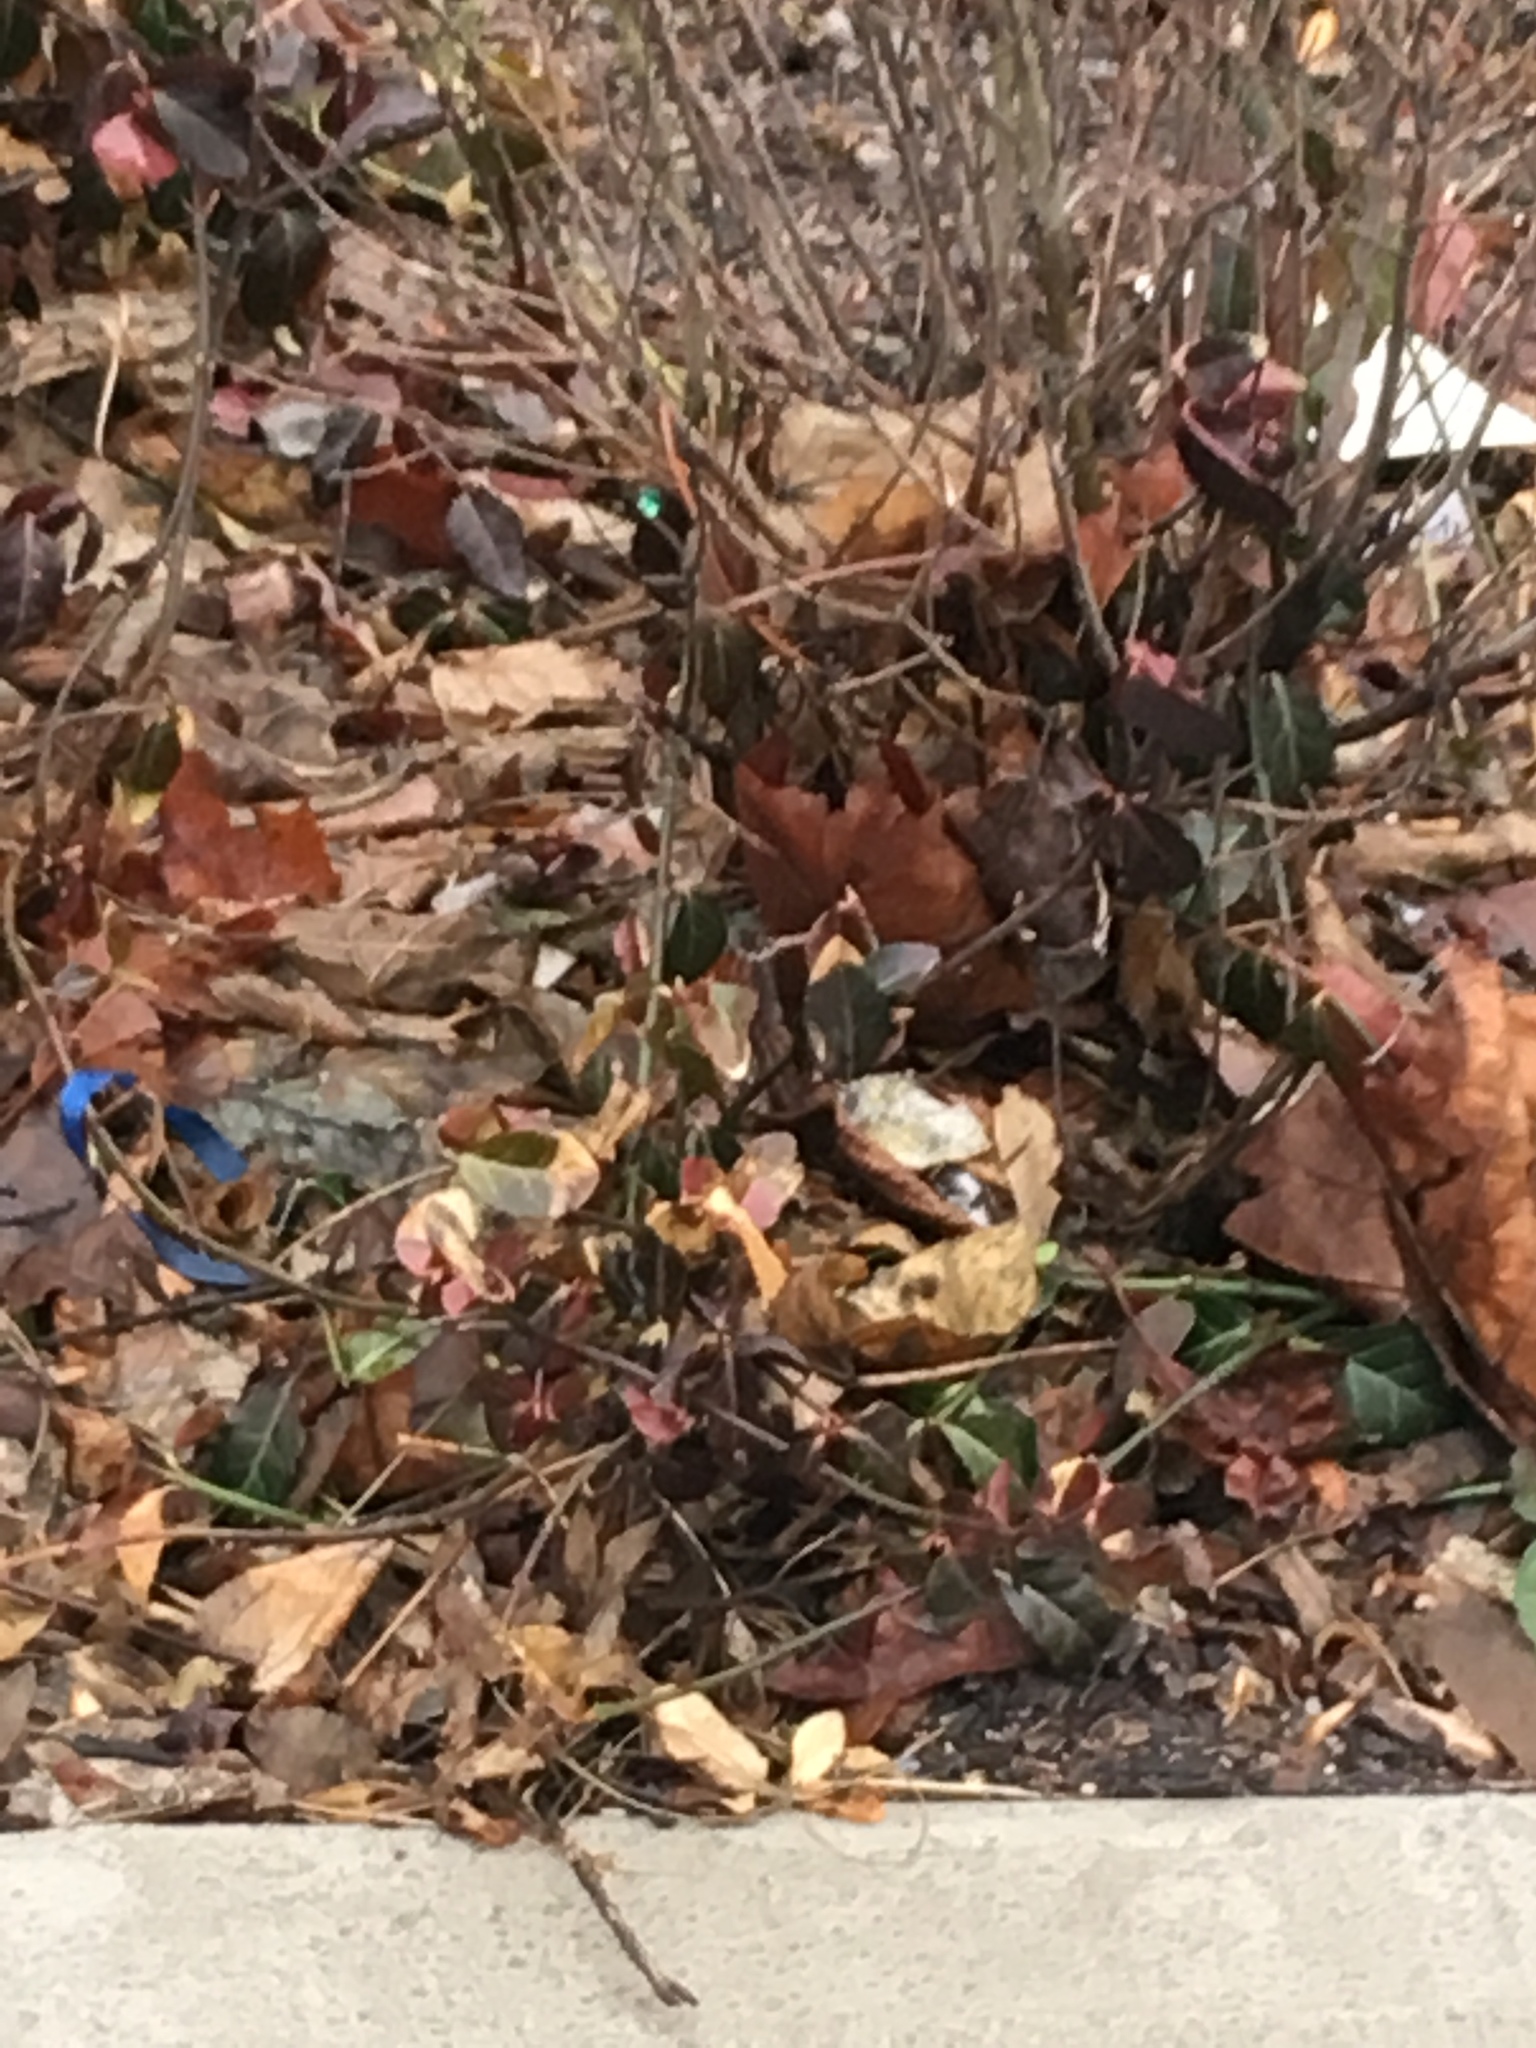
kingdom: Plantae
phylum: Tracheophyta
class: Magnoliopsida
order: Celastrales
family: Celastraceae
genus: Euonymus
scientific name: Euonymus fortunei
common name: Climbing euonymus
